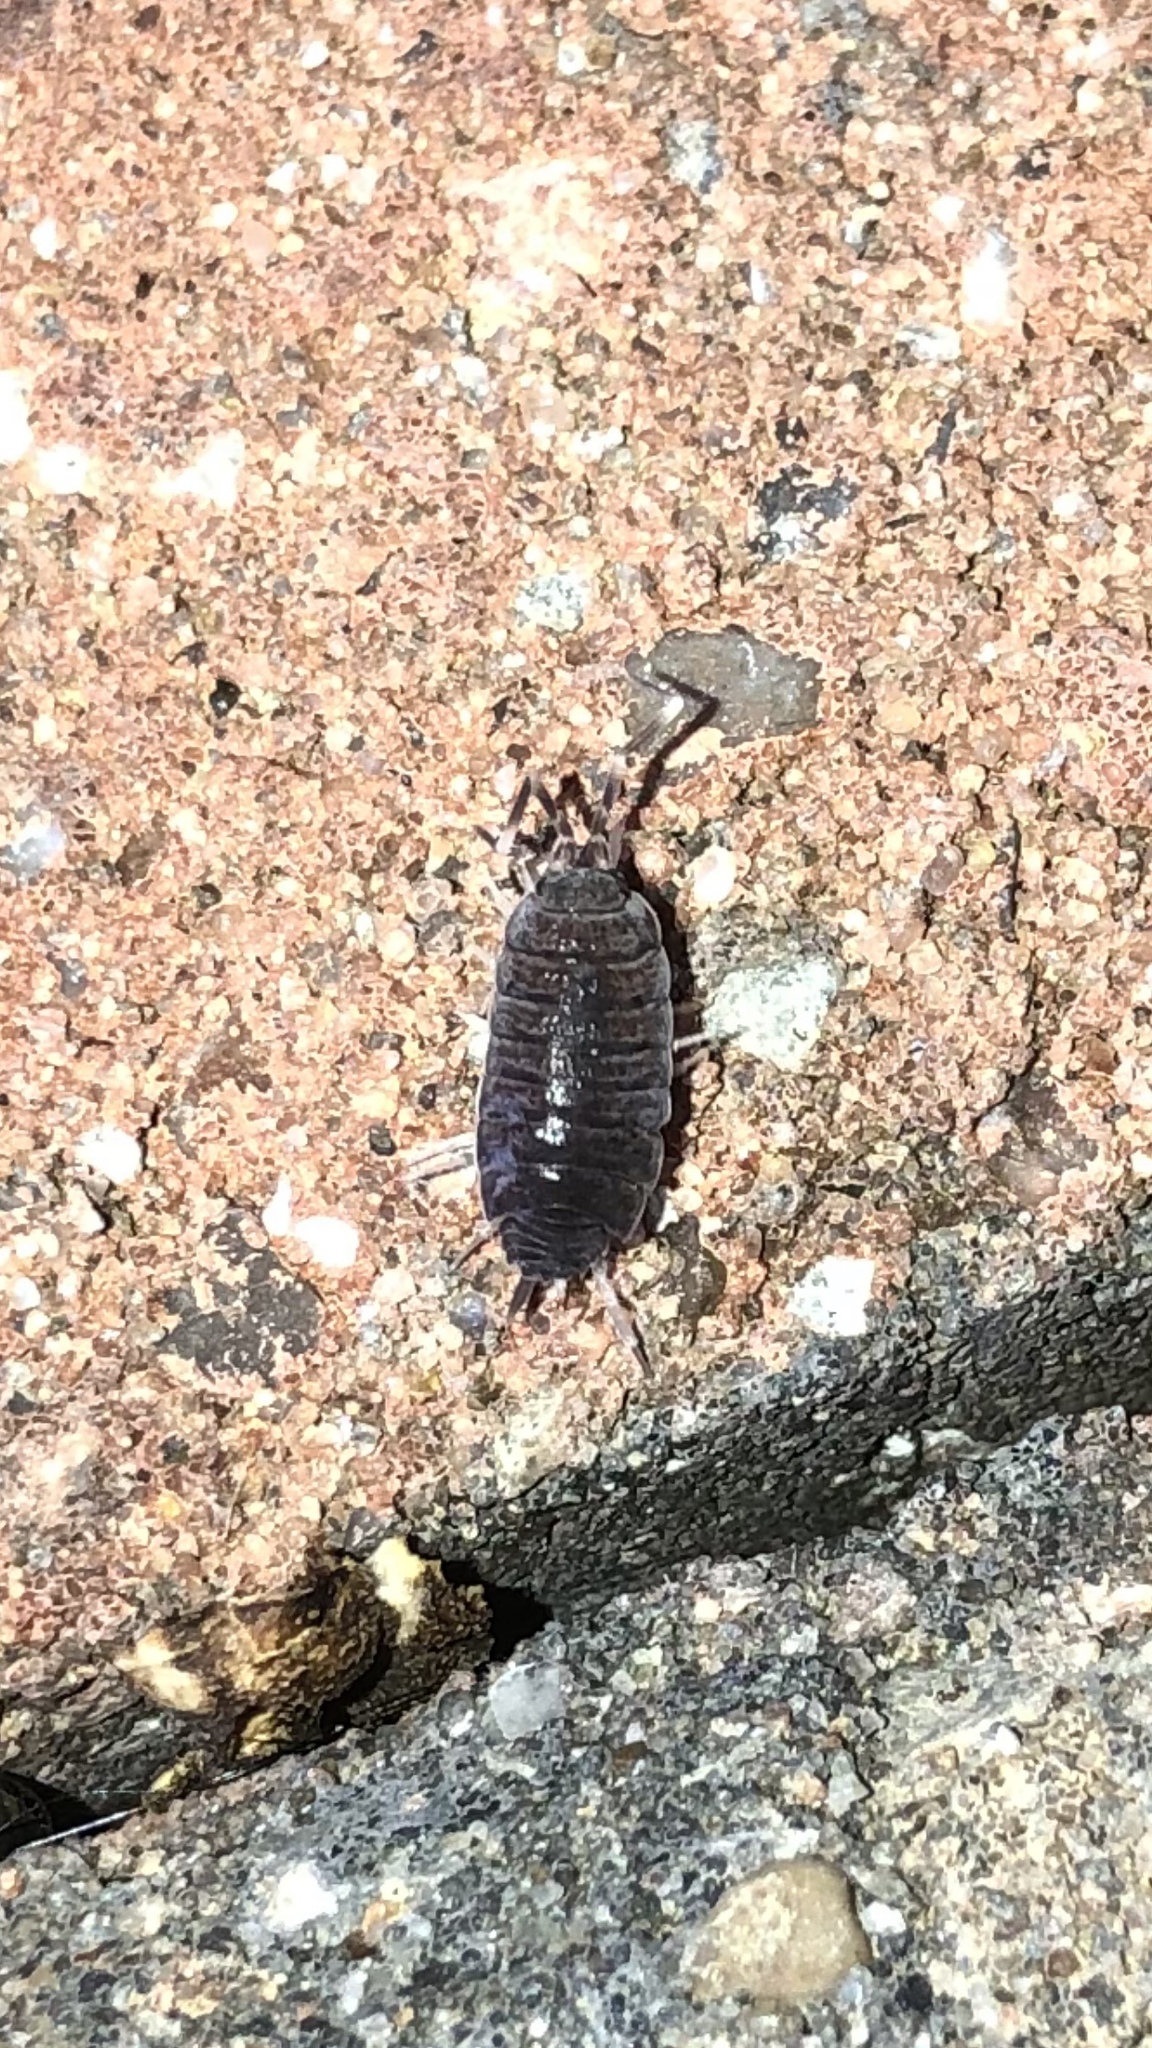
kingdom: Animalia
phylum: Arthropoda
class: Malacostraca
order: Isopoda
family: Porcellionidae
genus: Porcellionides
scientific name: Porcellionides pruinosus
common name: Plum woodlouse
